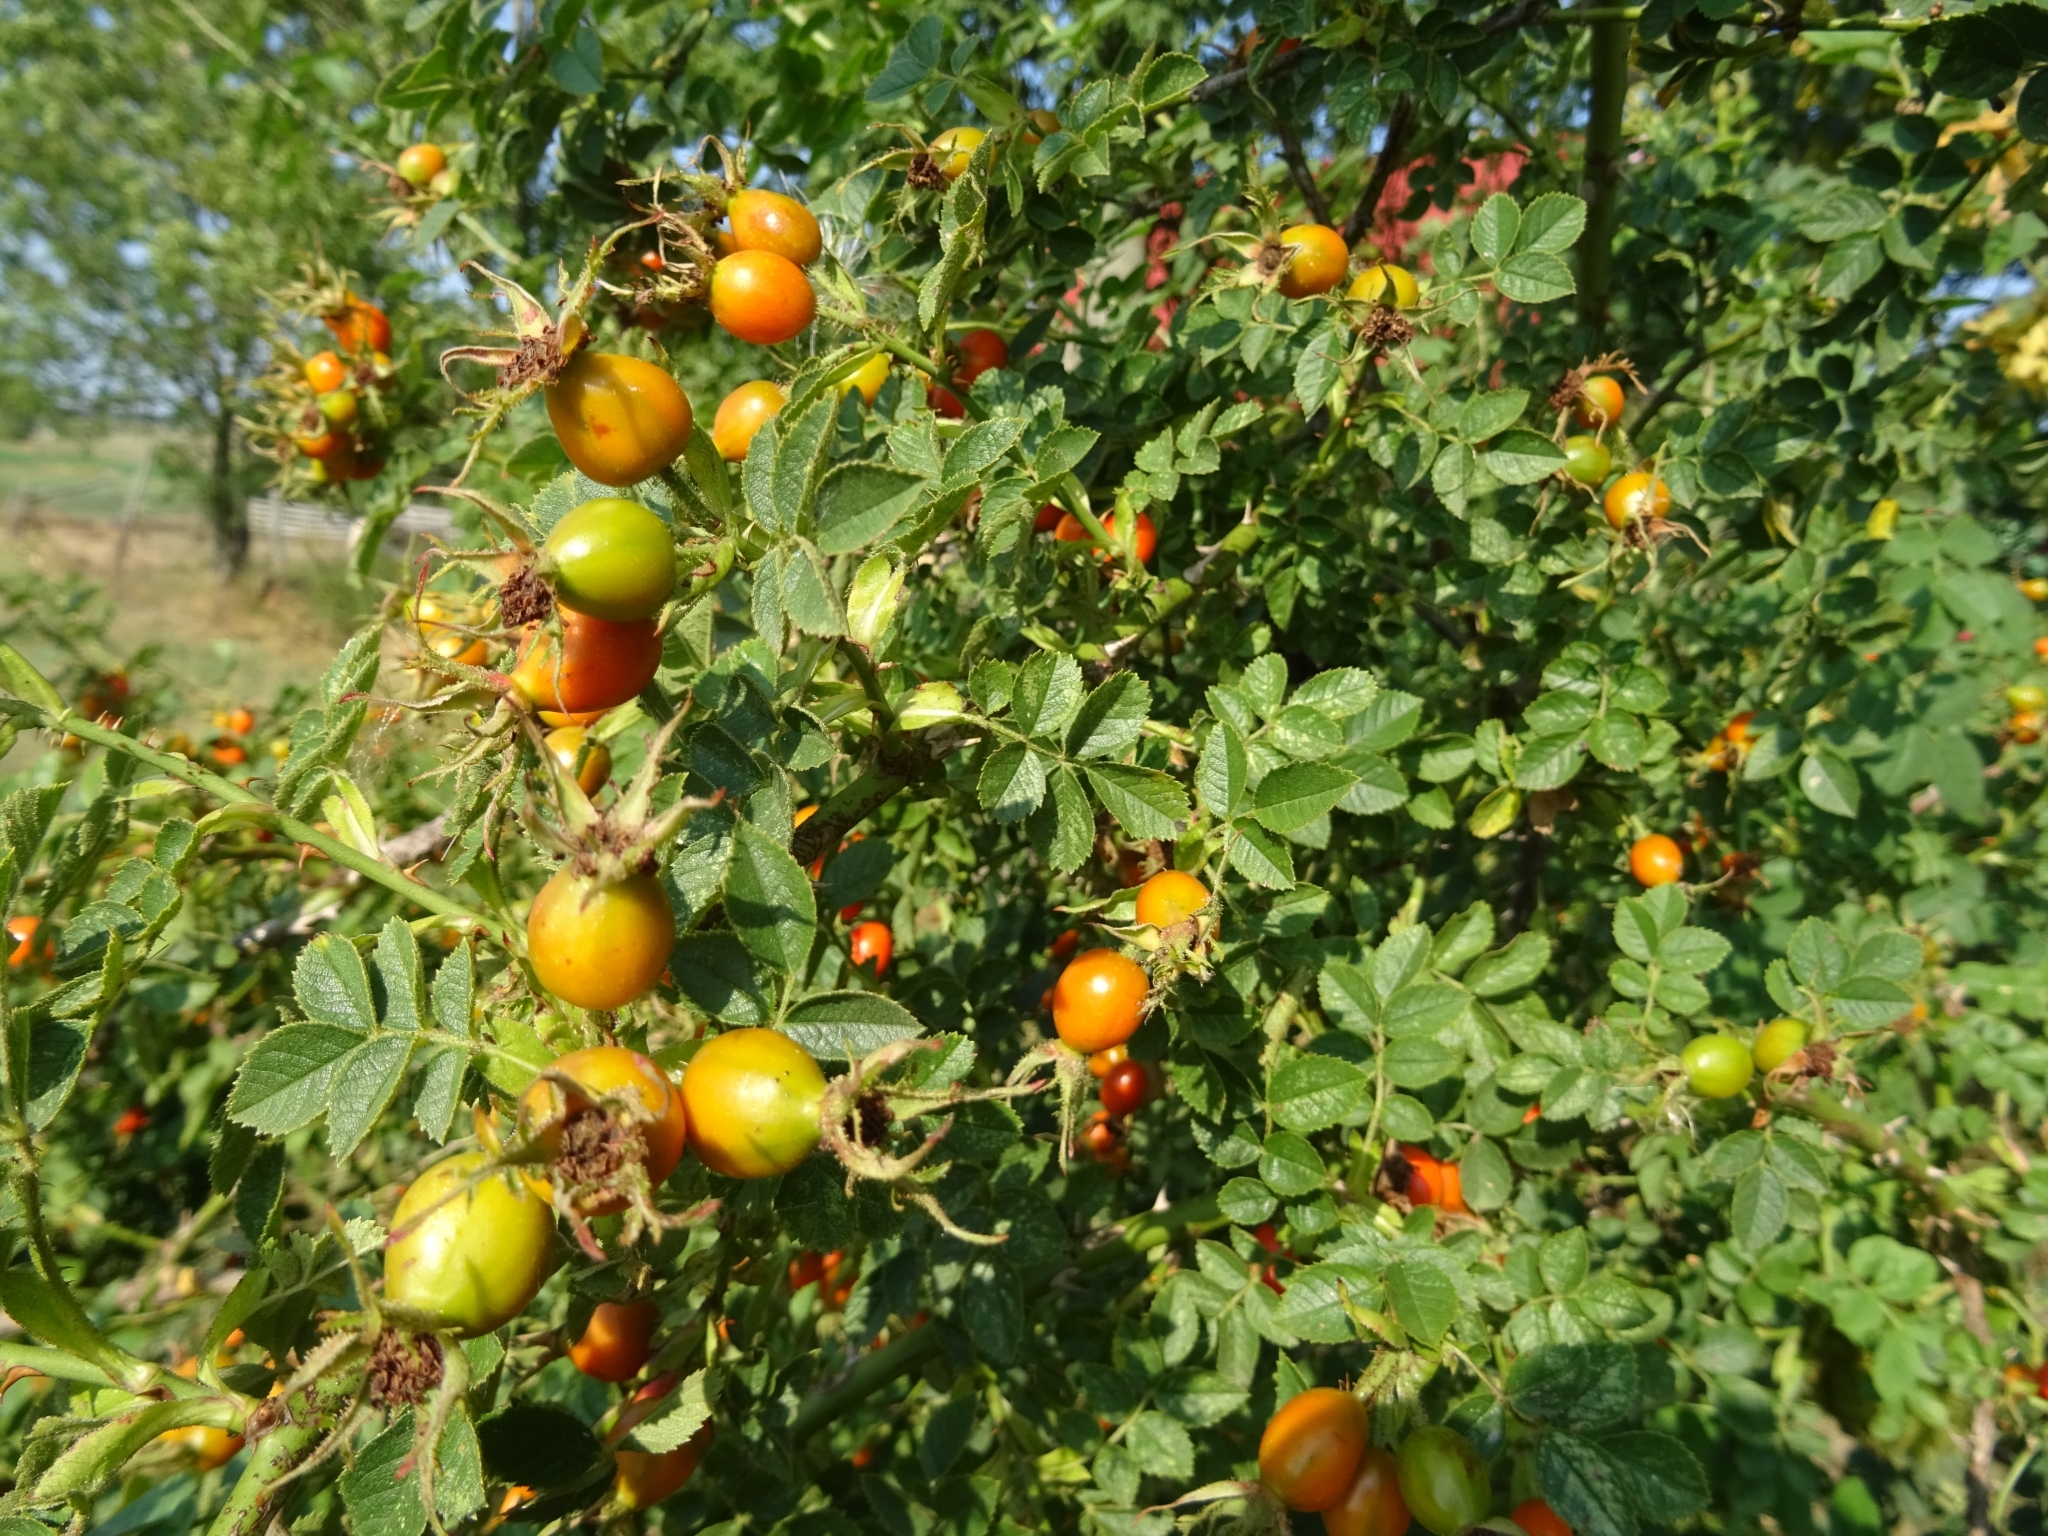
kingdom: Plantae
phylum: Tracheophyta
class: Magnoliopsida
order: Rosales
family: Rosaceae
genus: Rosa
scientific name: Rosa rubiginosa
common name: Sweet-briar
